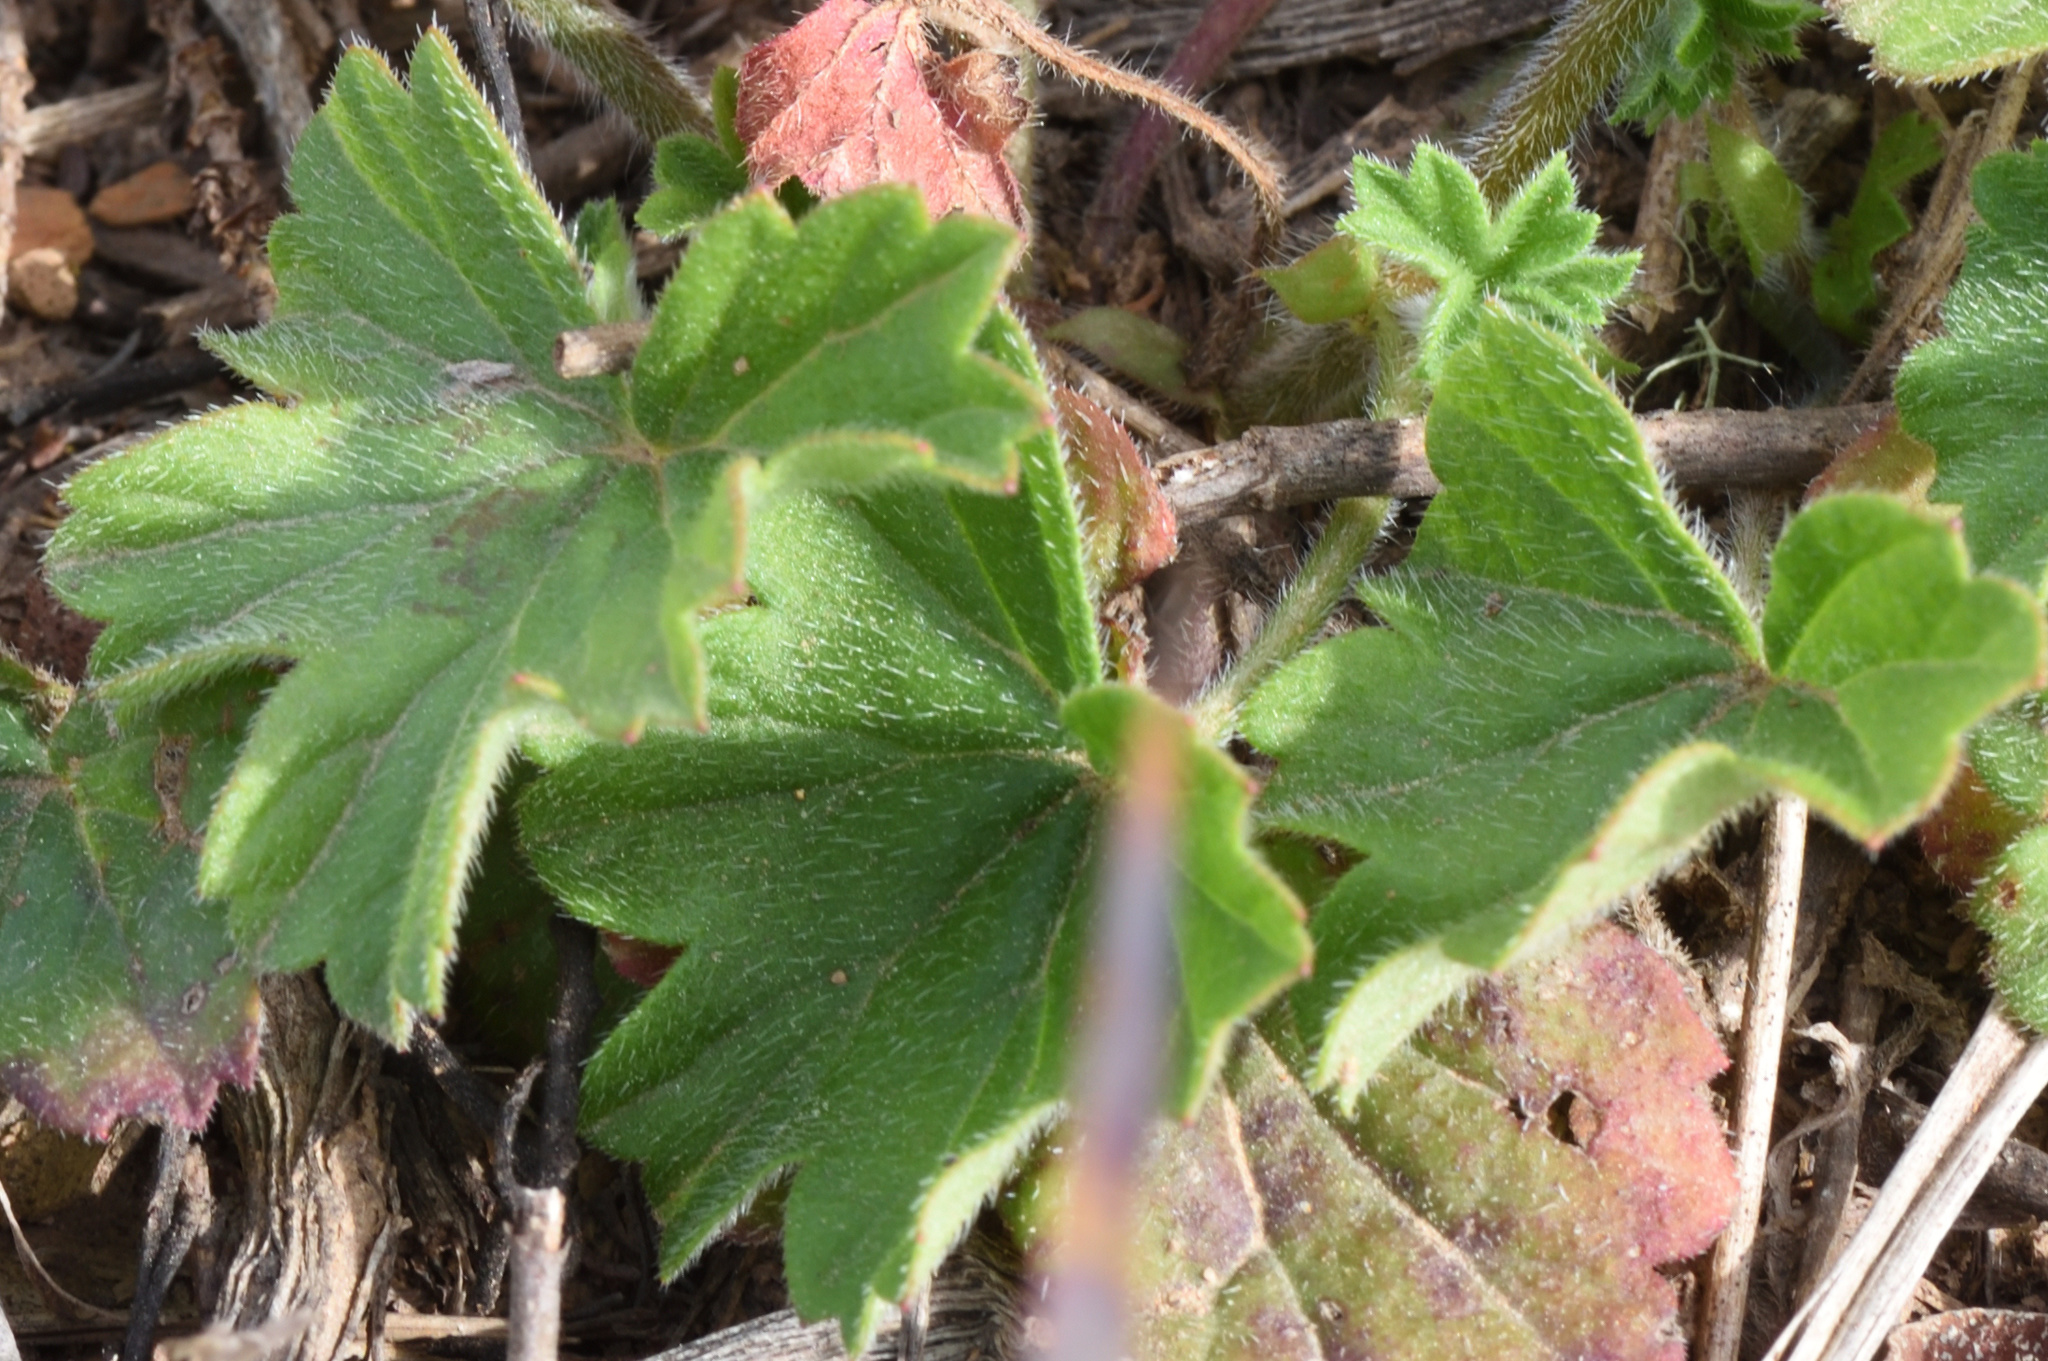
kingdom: Plantae
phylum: Tracheophyta
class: Magnoliopsida
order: Geraniales
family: Geraniaceae
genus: Pelargonium
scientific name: Pelargonium alchemilloides
